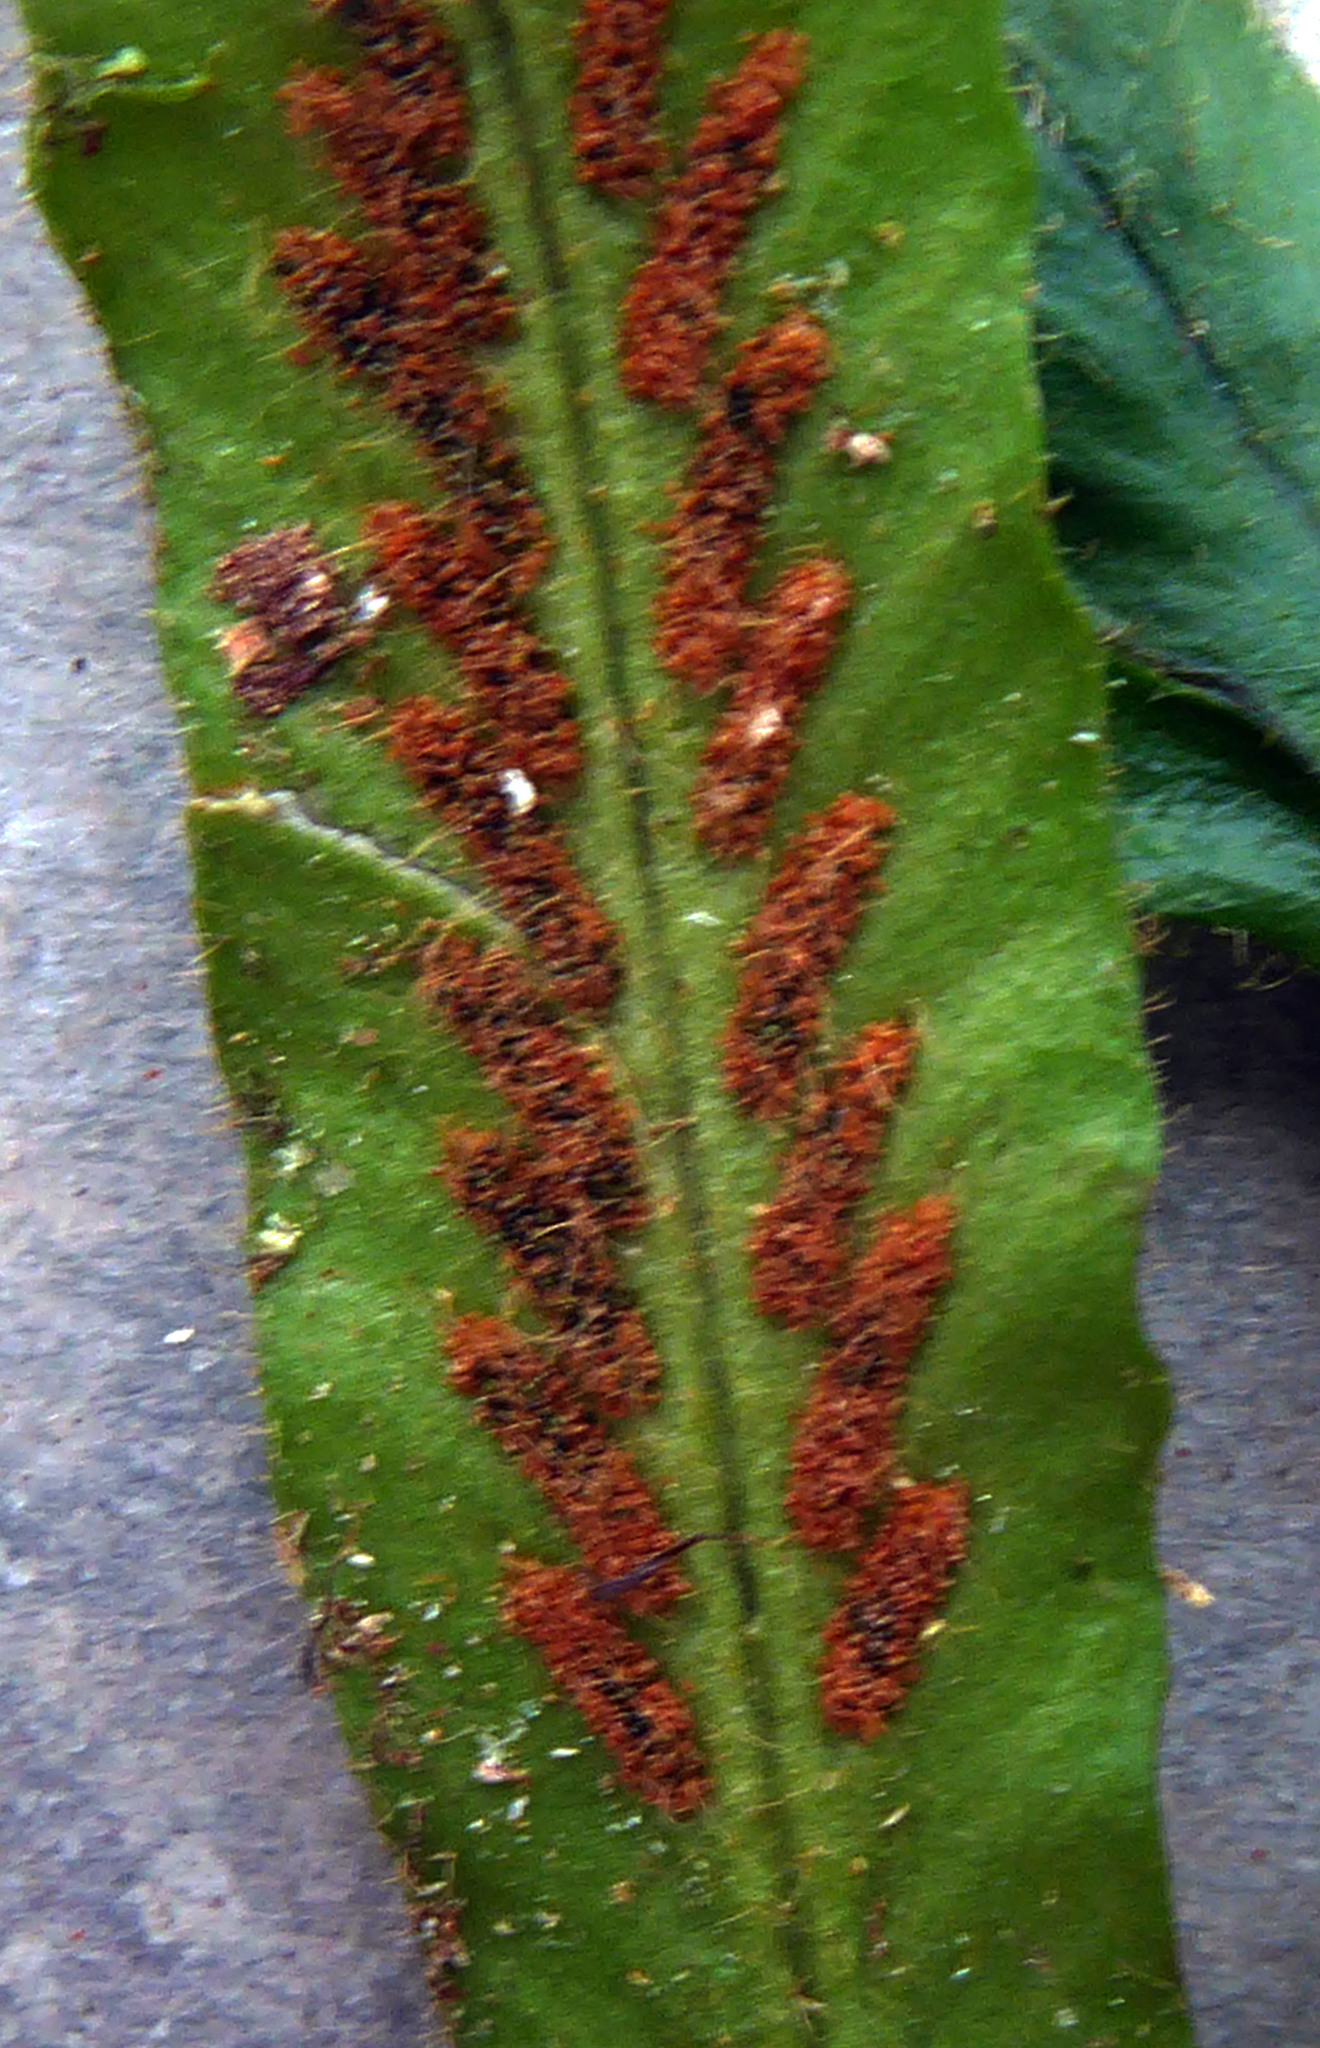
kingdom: Plantae
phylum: Tracheophyta
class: Polypodiopsida
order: Polypodiales
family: Polypodiaceae
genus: Notogrammitis
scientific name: Notogrammitis pseudociliata
